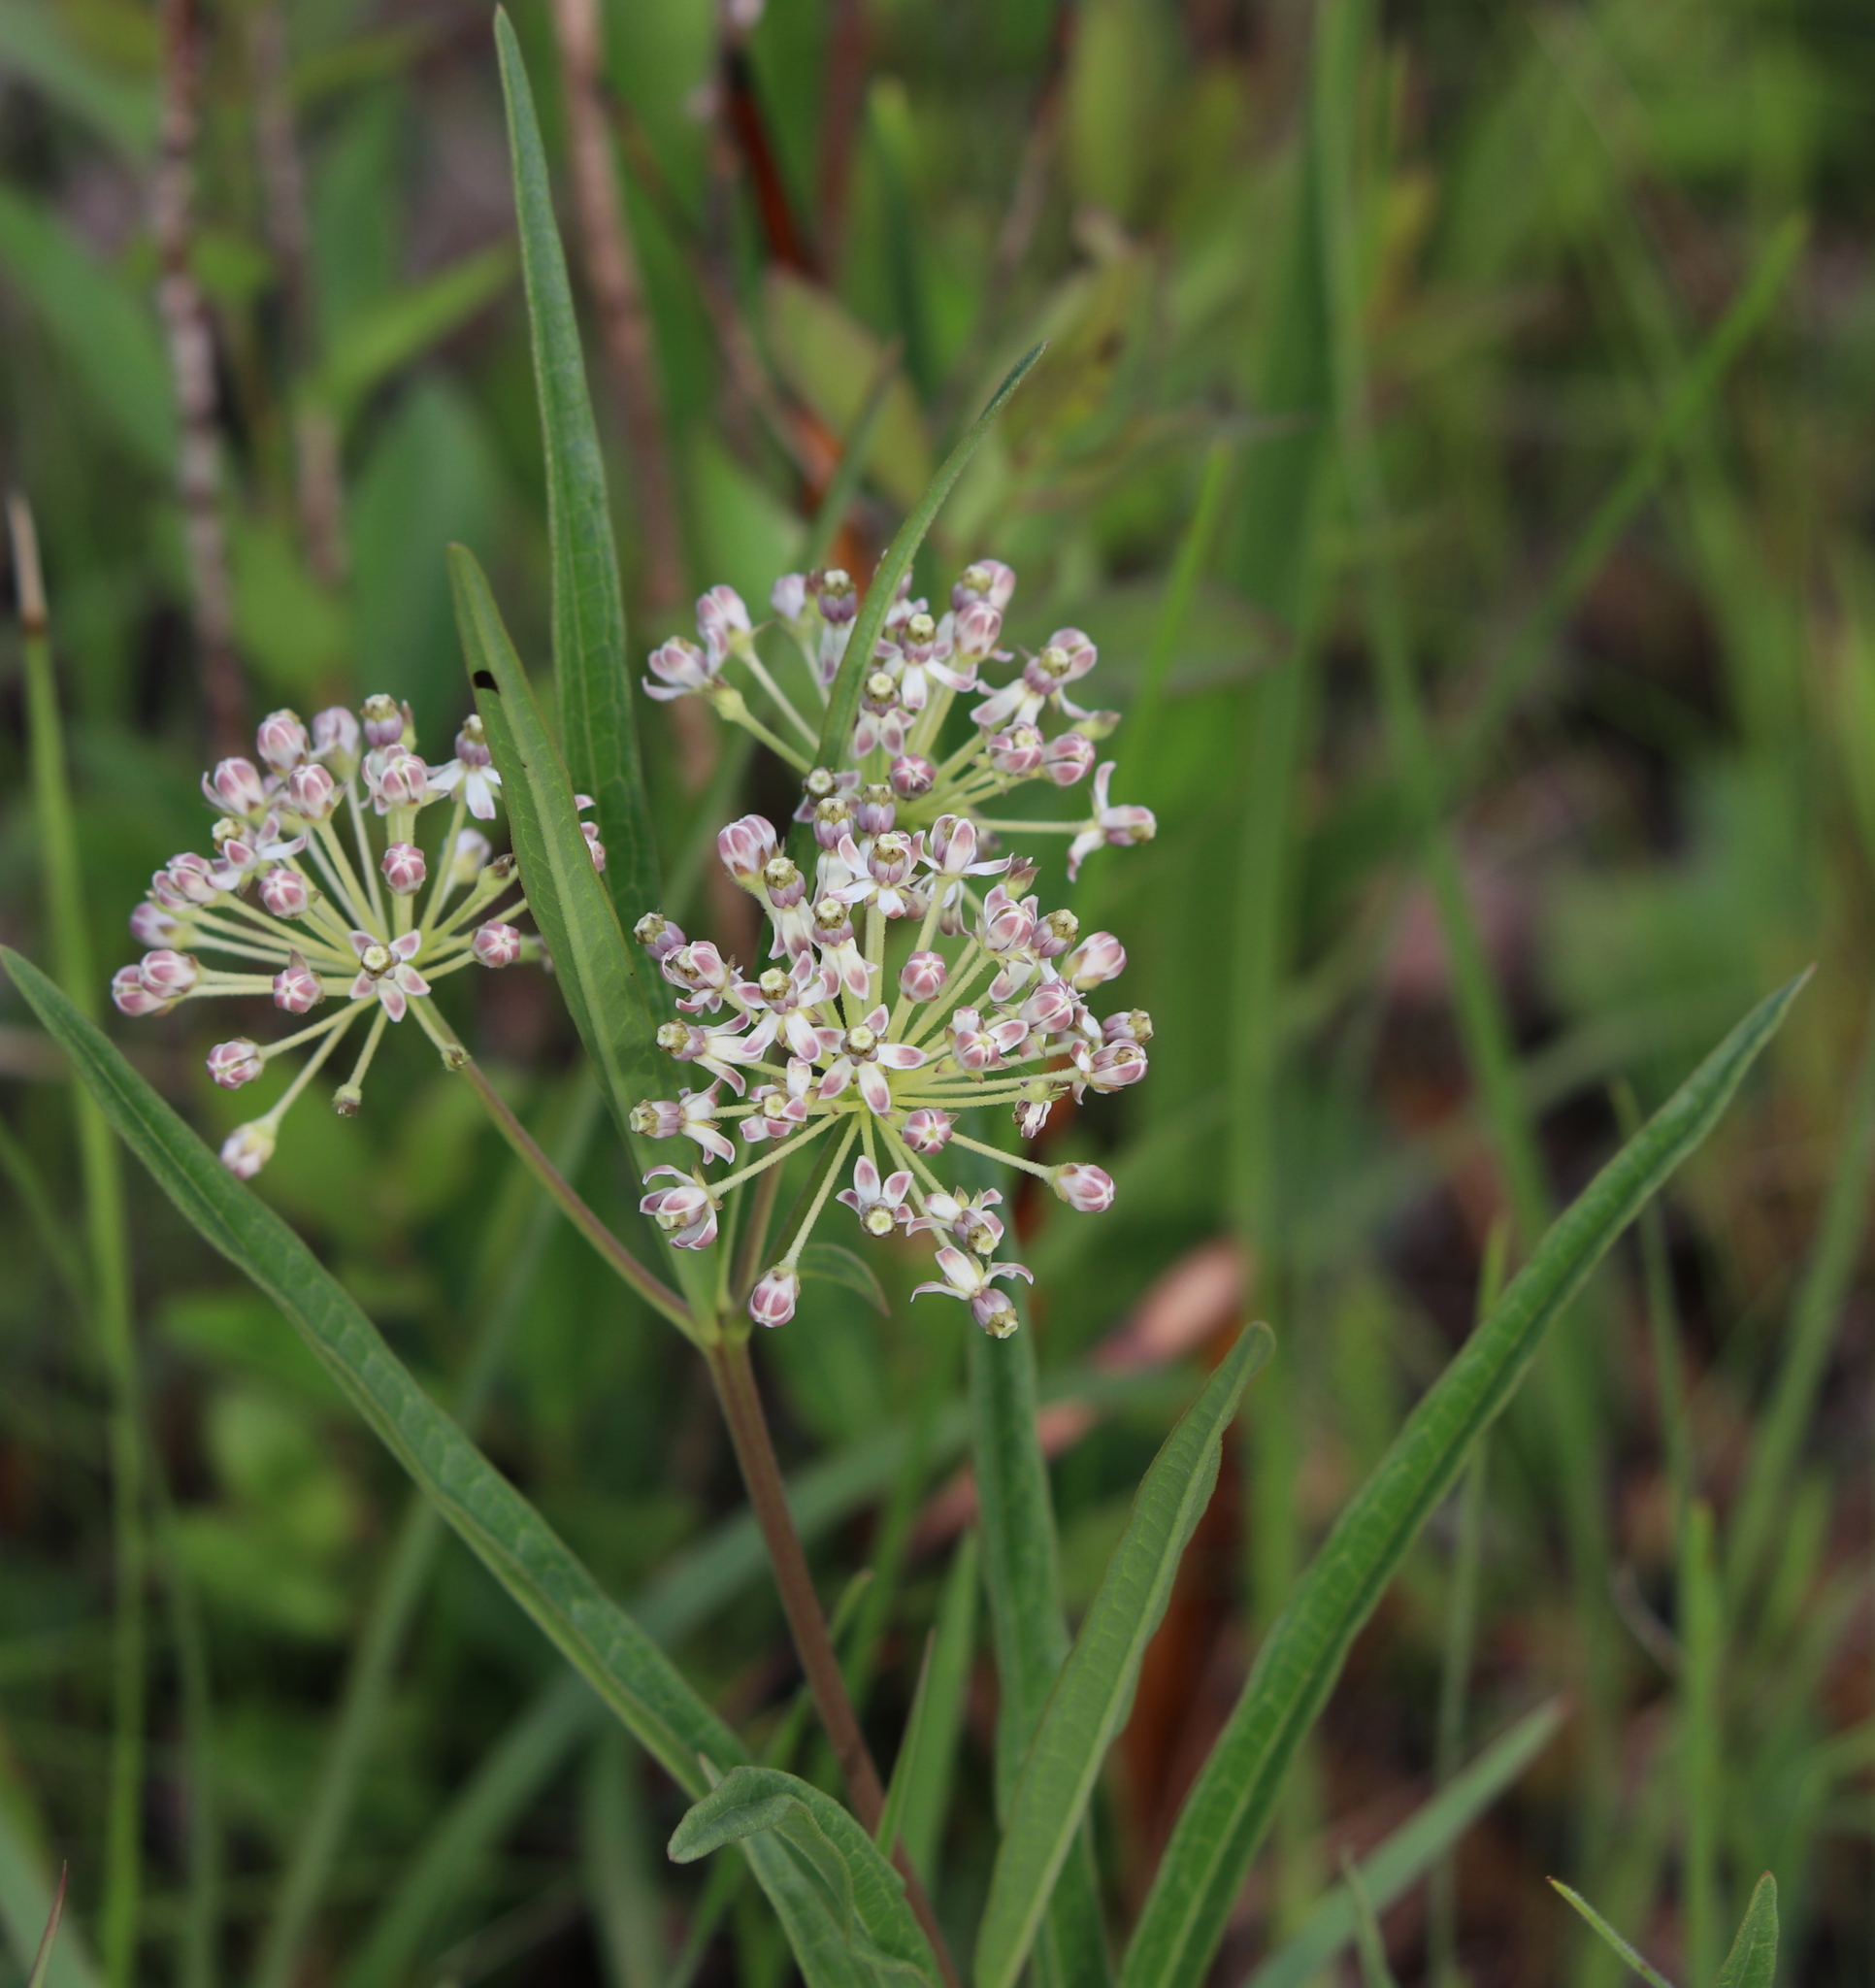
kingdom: Plantae
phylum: Tracheophyta
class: Magnoliopsida
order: Gentianales
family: Apocynaceae
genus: Asclepias
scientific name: Asclepias longifolia
